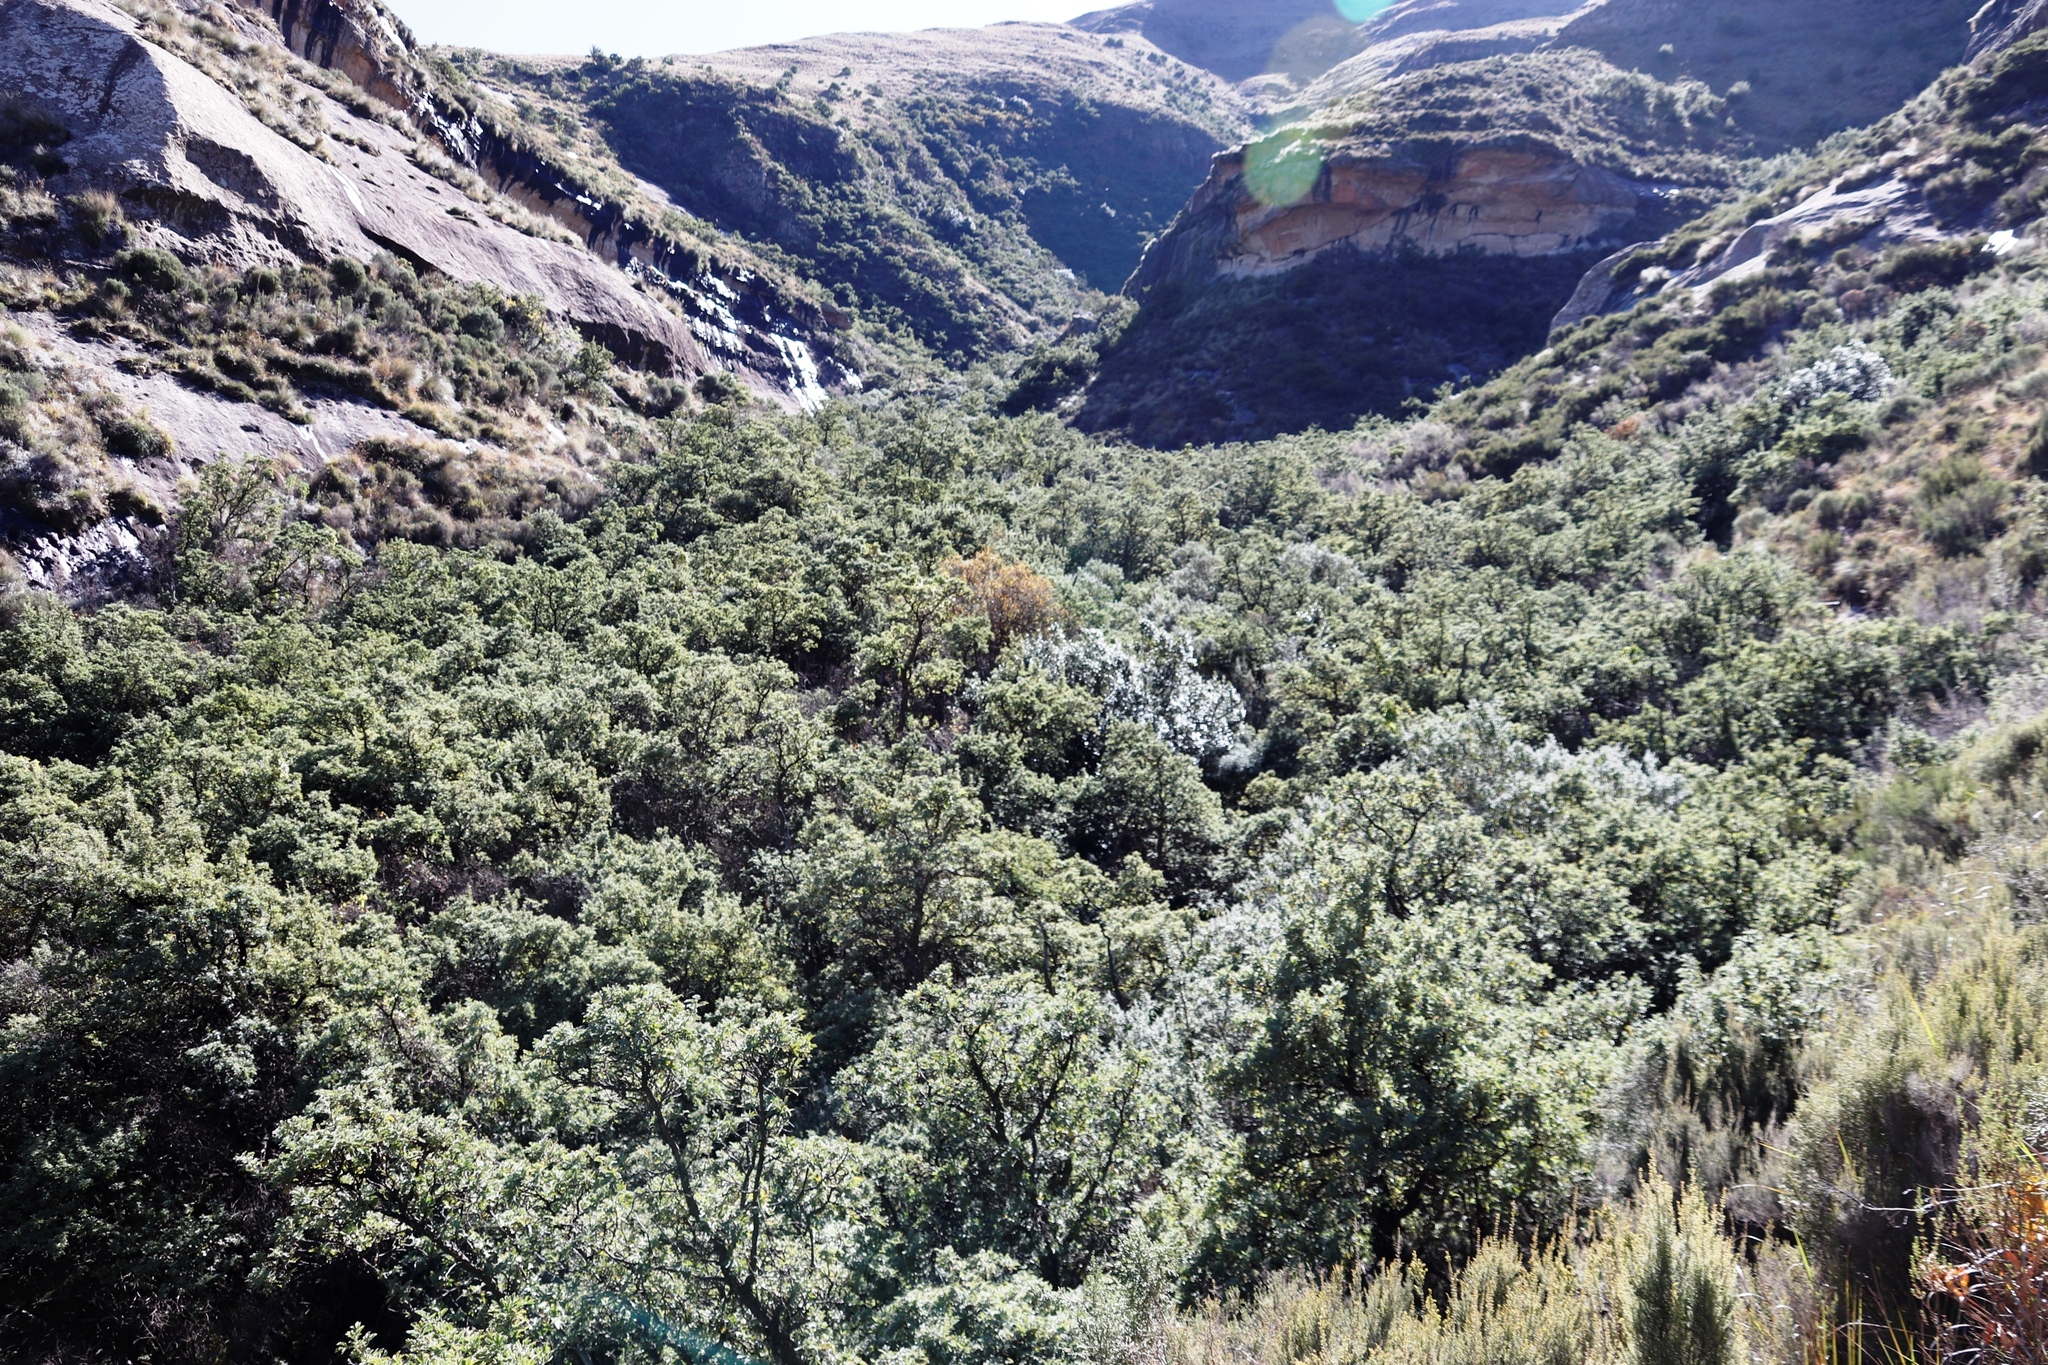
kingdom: Plantae
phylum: Tracheophyta
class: Magnoliopsida
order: Rosales
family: Rosaceae
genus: Leucosidea
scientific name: Leucosidea sericea
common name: Oldwood
